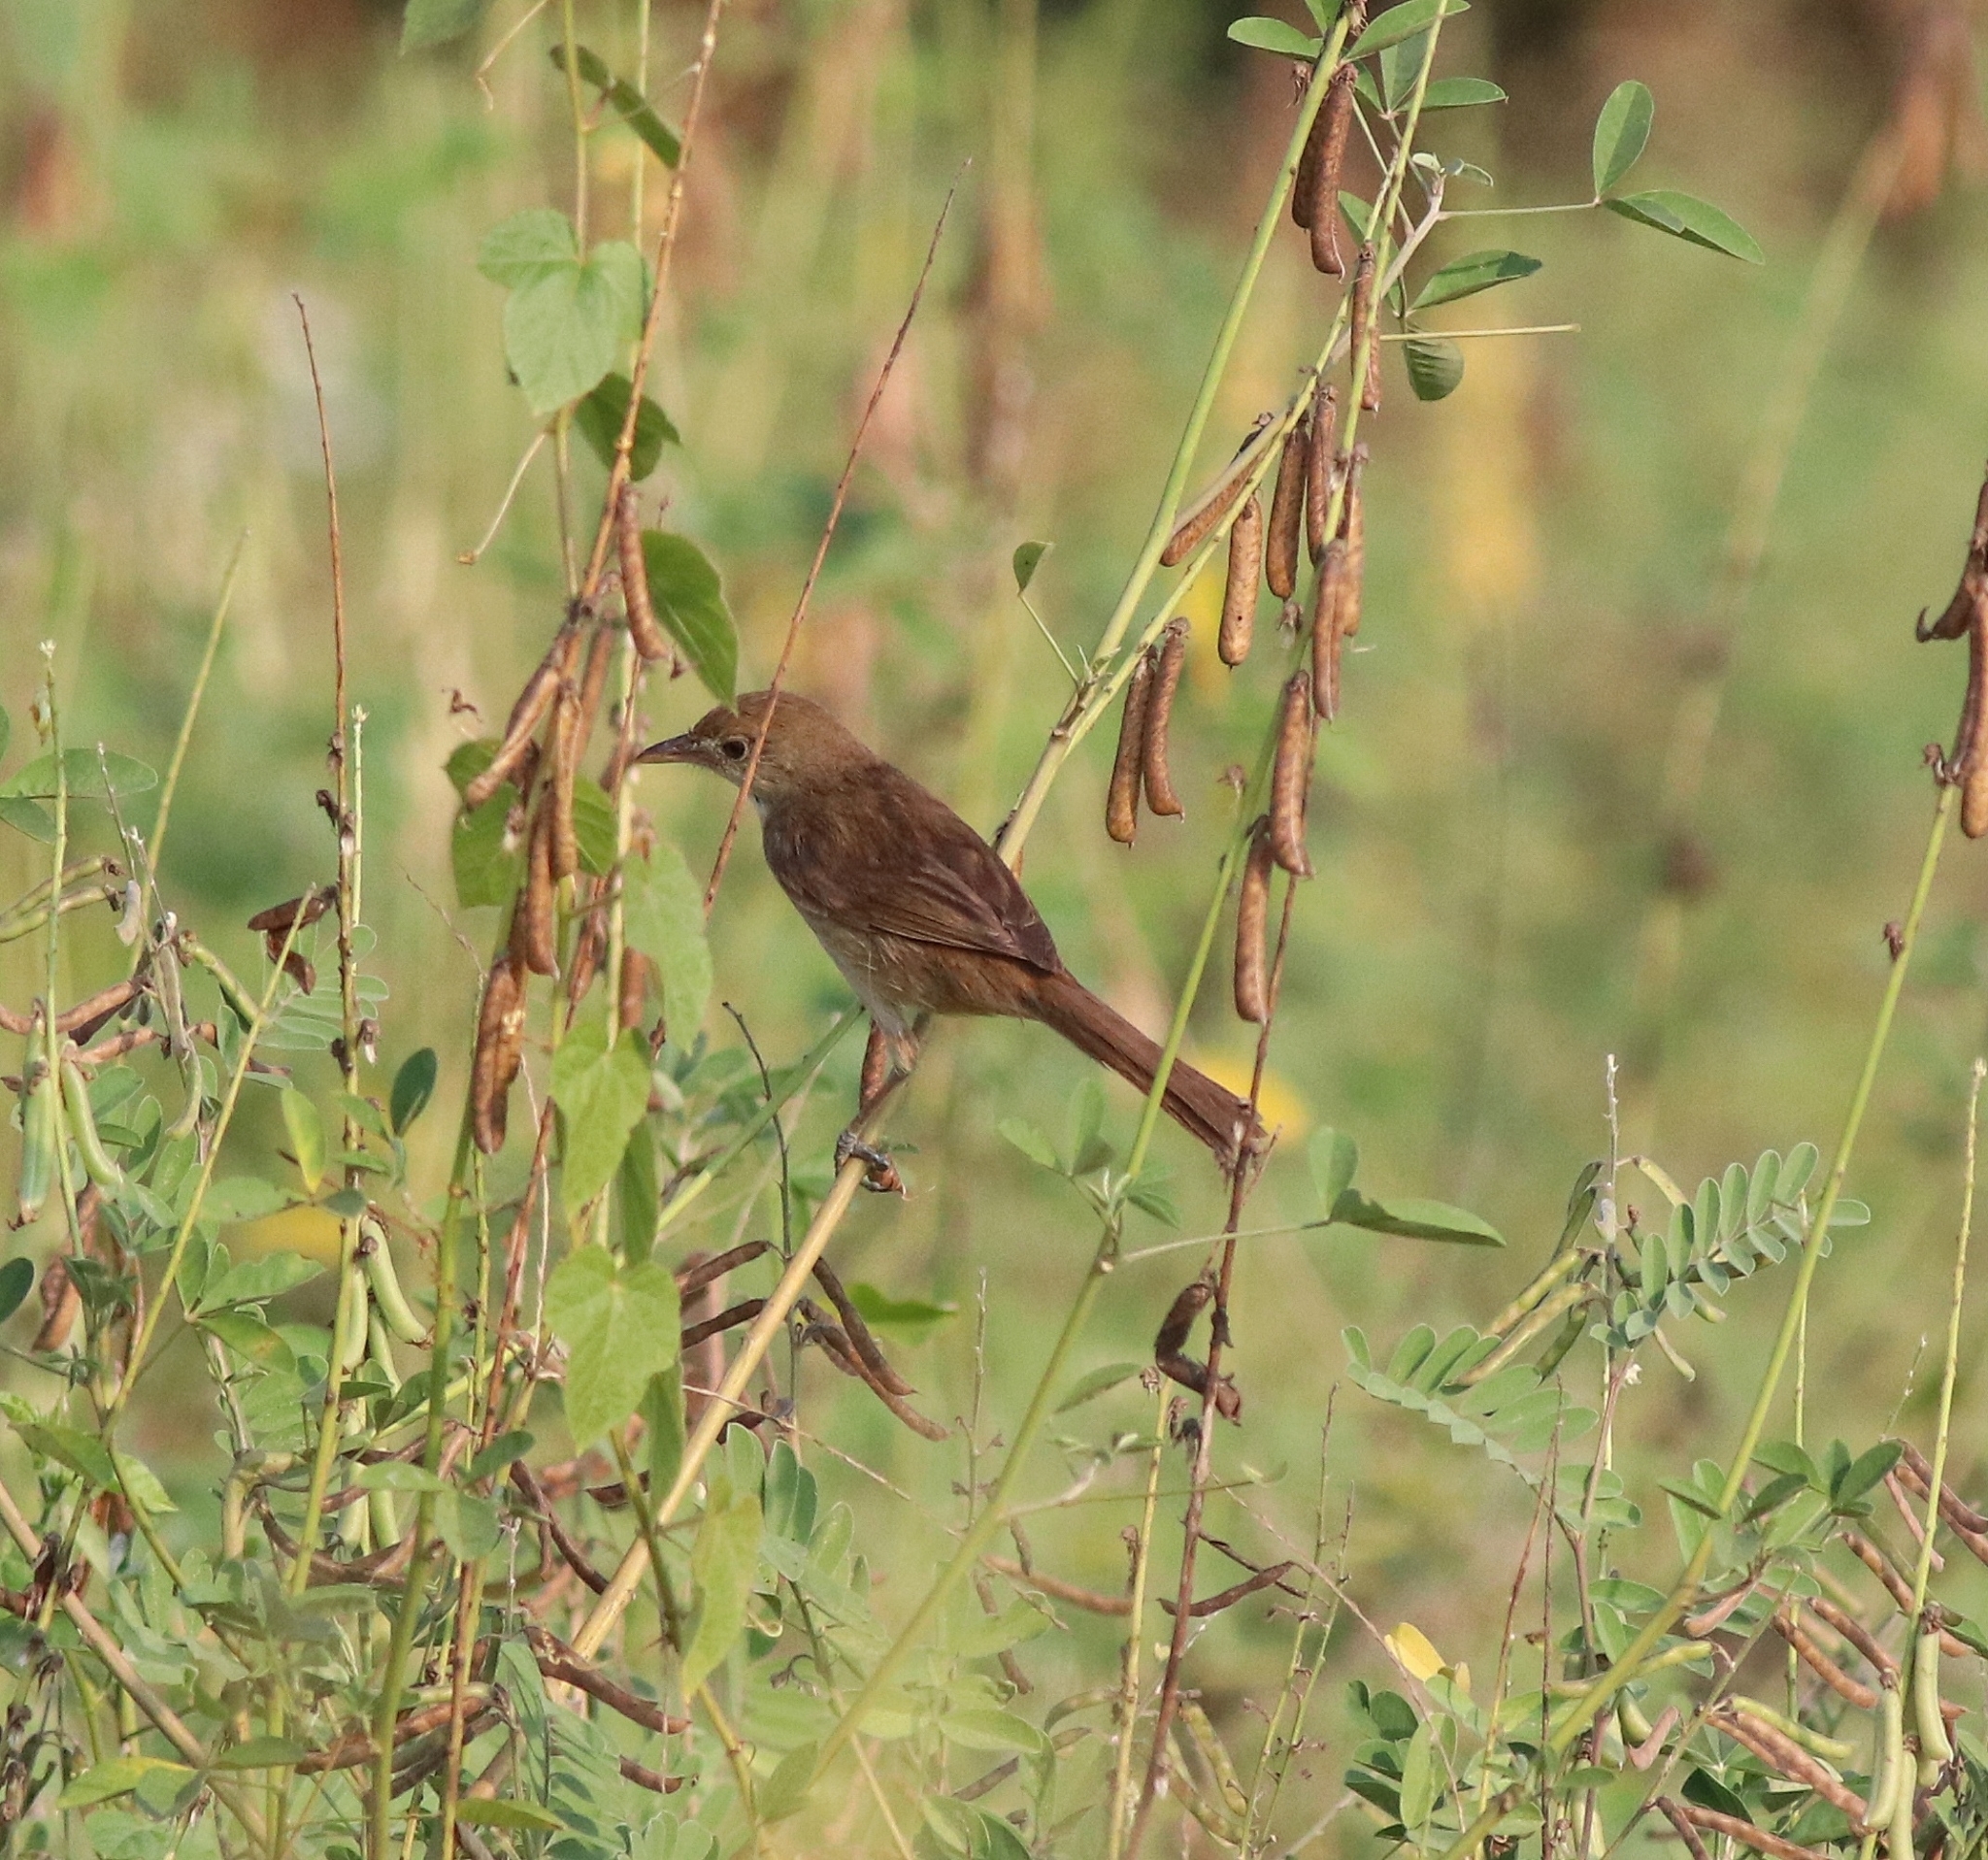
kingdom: Animalia
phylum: Chordata
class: Aves
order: Passeriformes
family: Acrocephalidae
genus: Iduna
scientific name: Iduna aedon
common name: Thick-billed warbler
